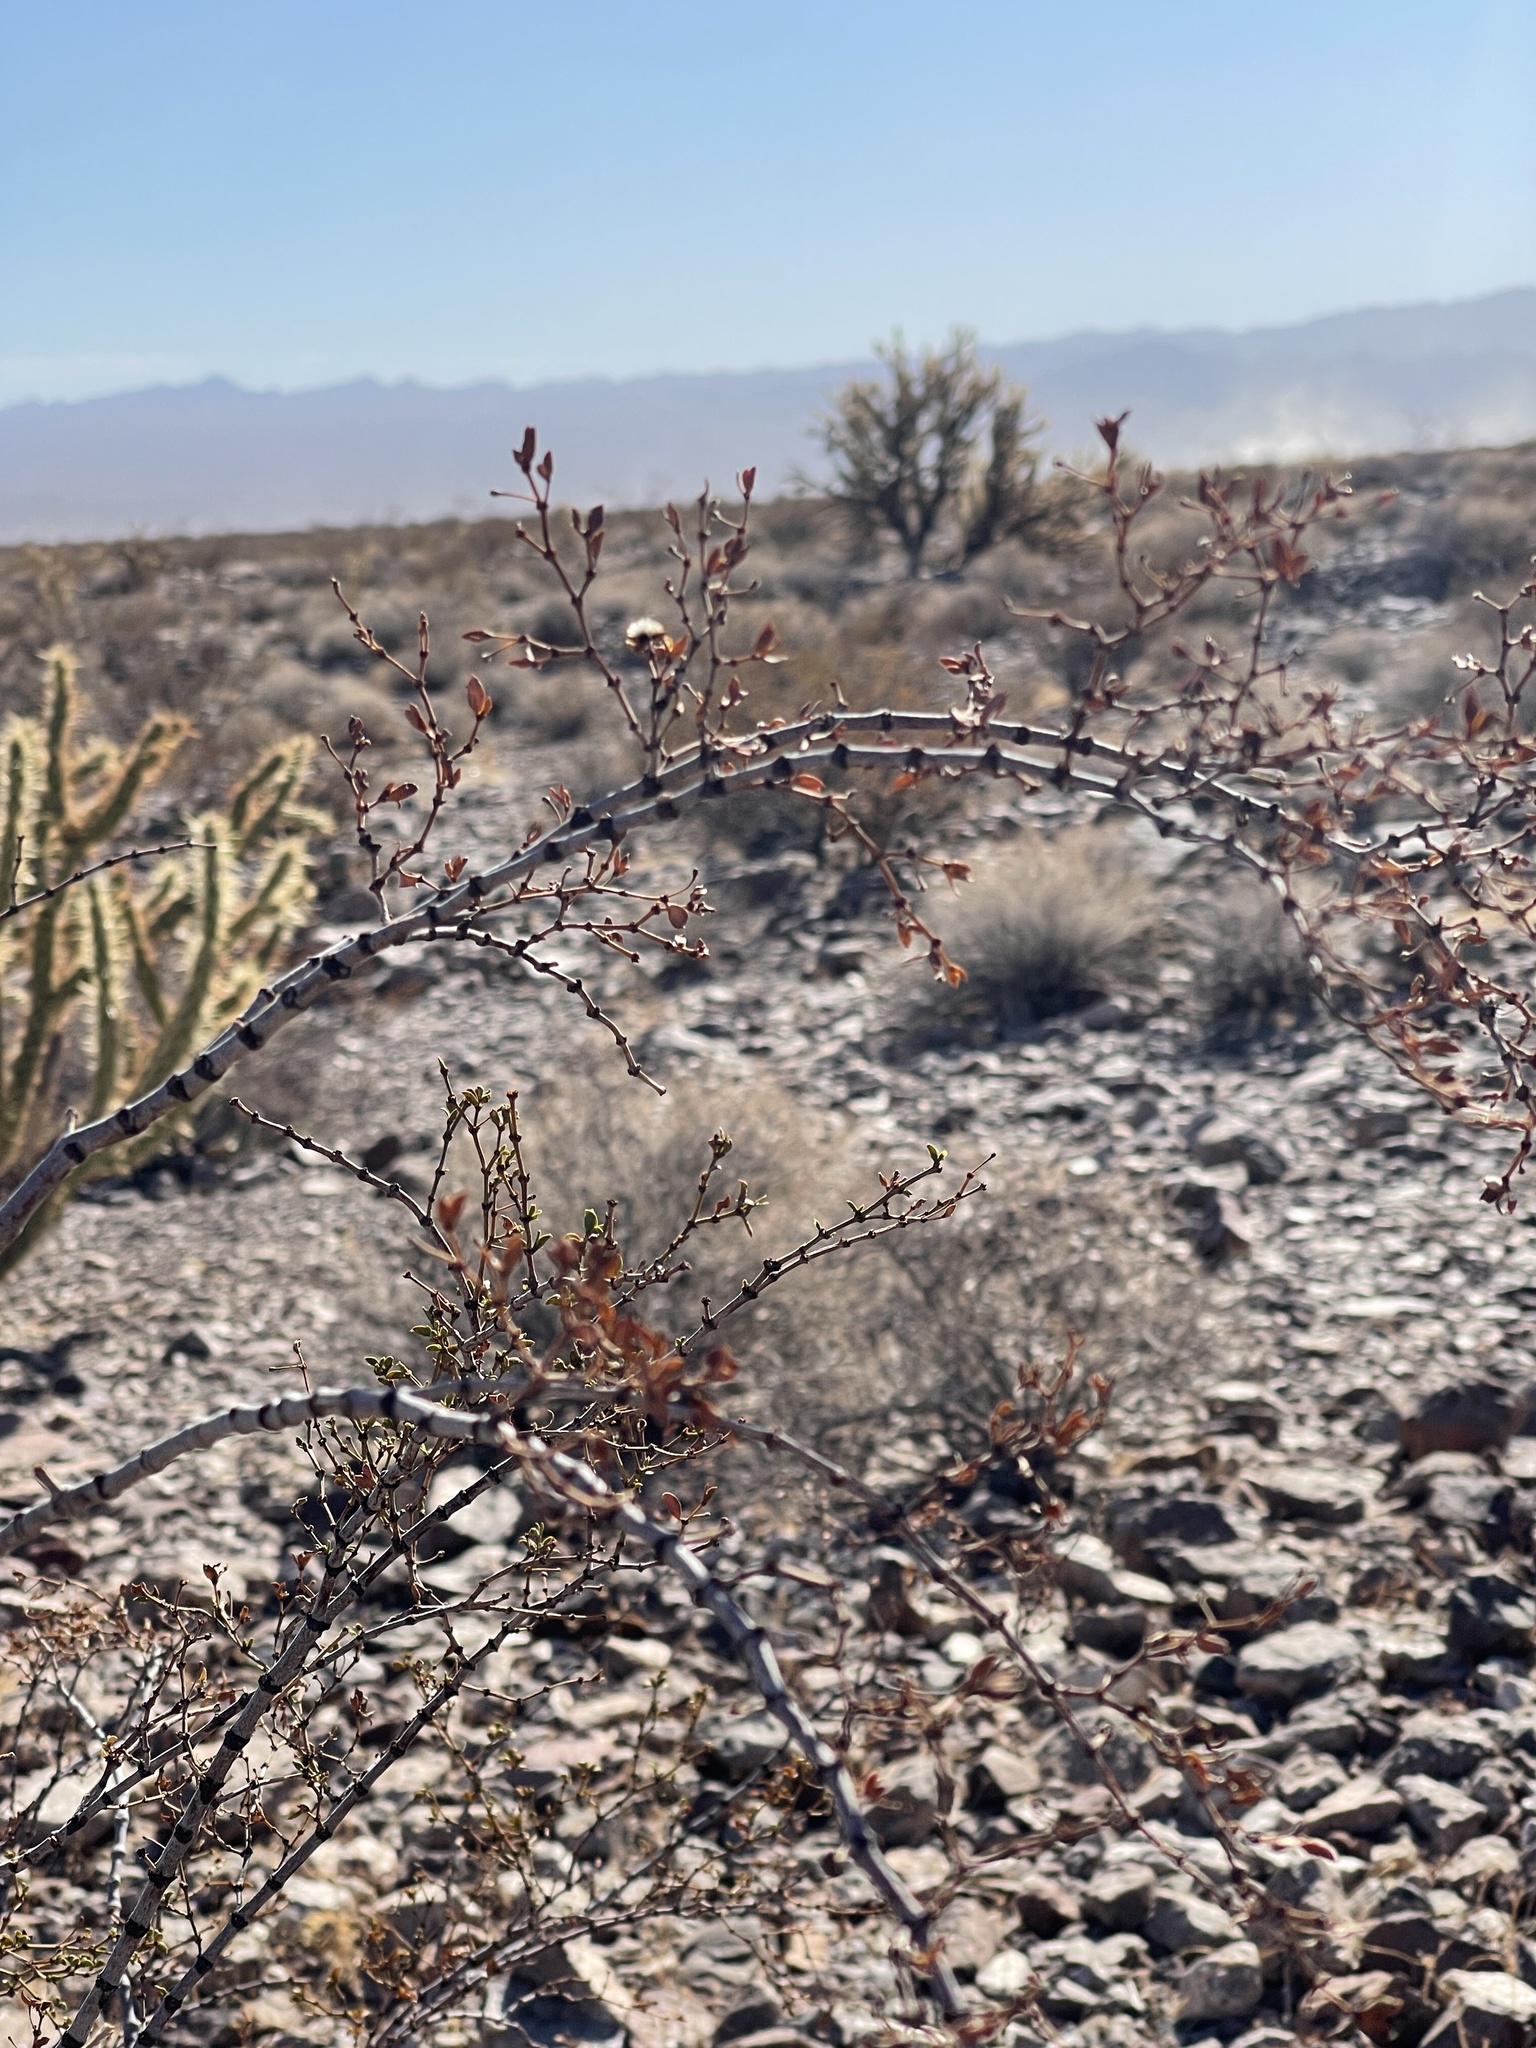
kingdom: Plantae
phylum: Tracheophyta
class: Magnoliopsida
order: Zygophyllales
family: Zygophyllaceae
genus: Larrea
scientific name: Larrea tridentata
